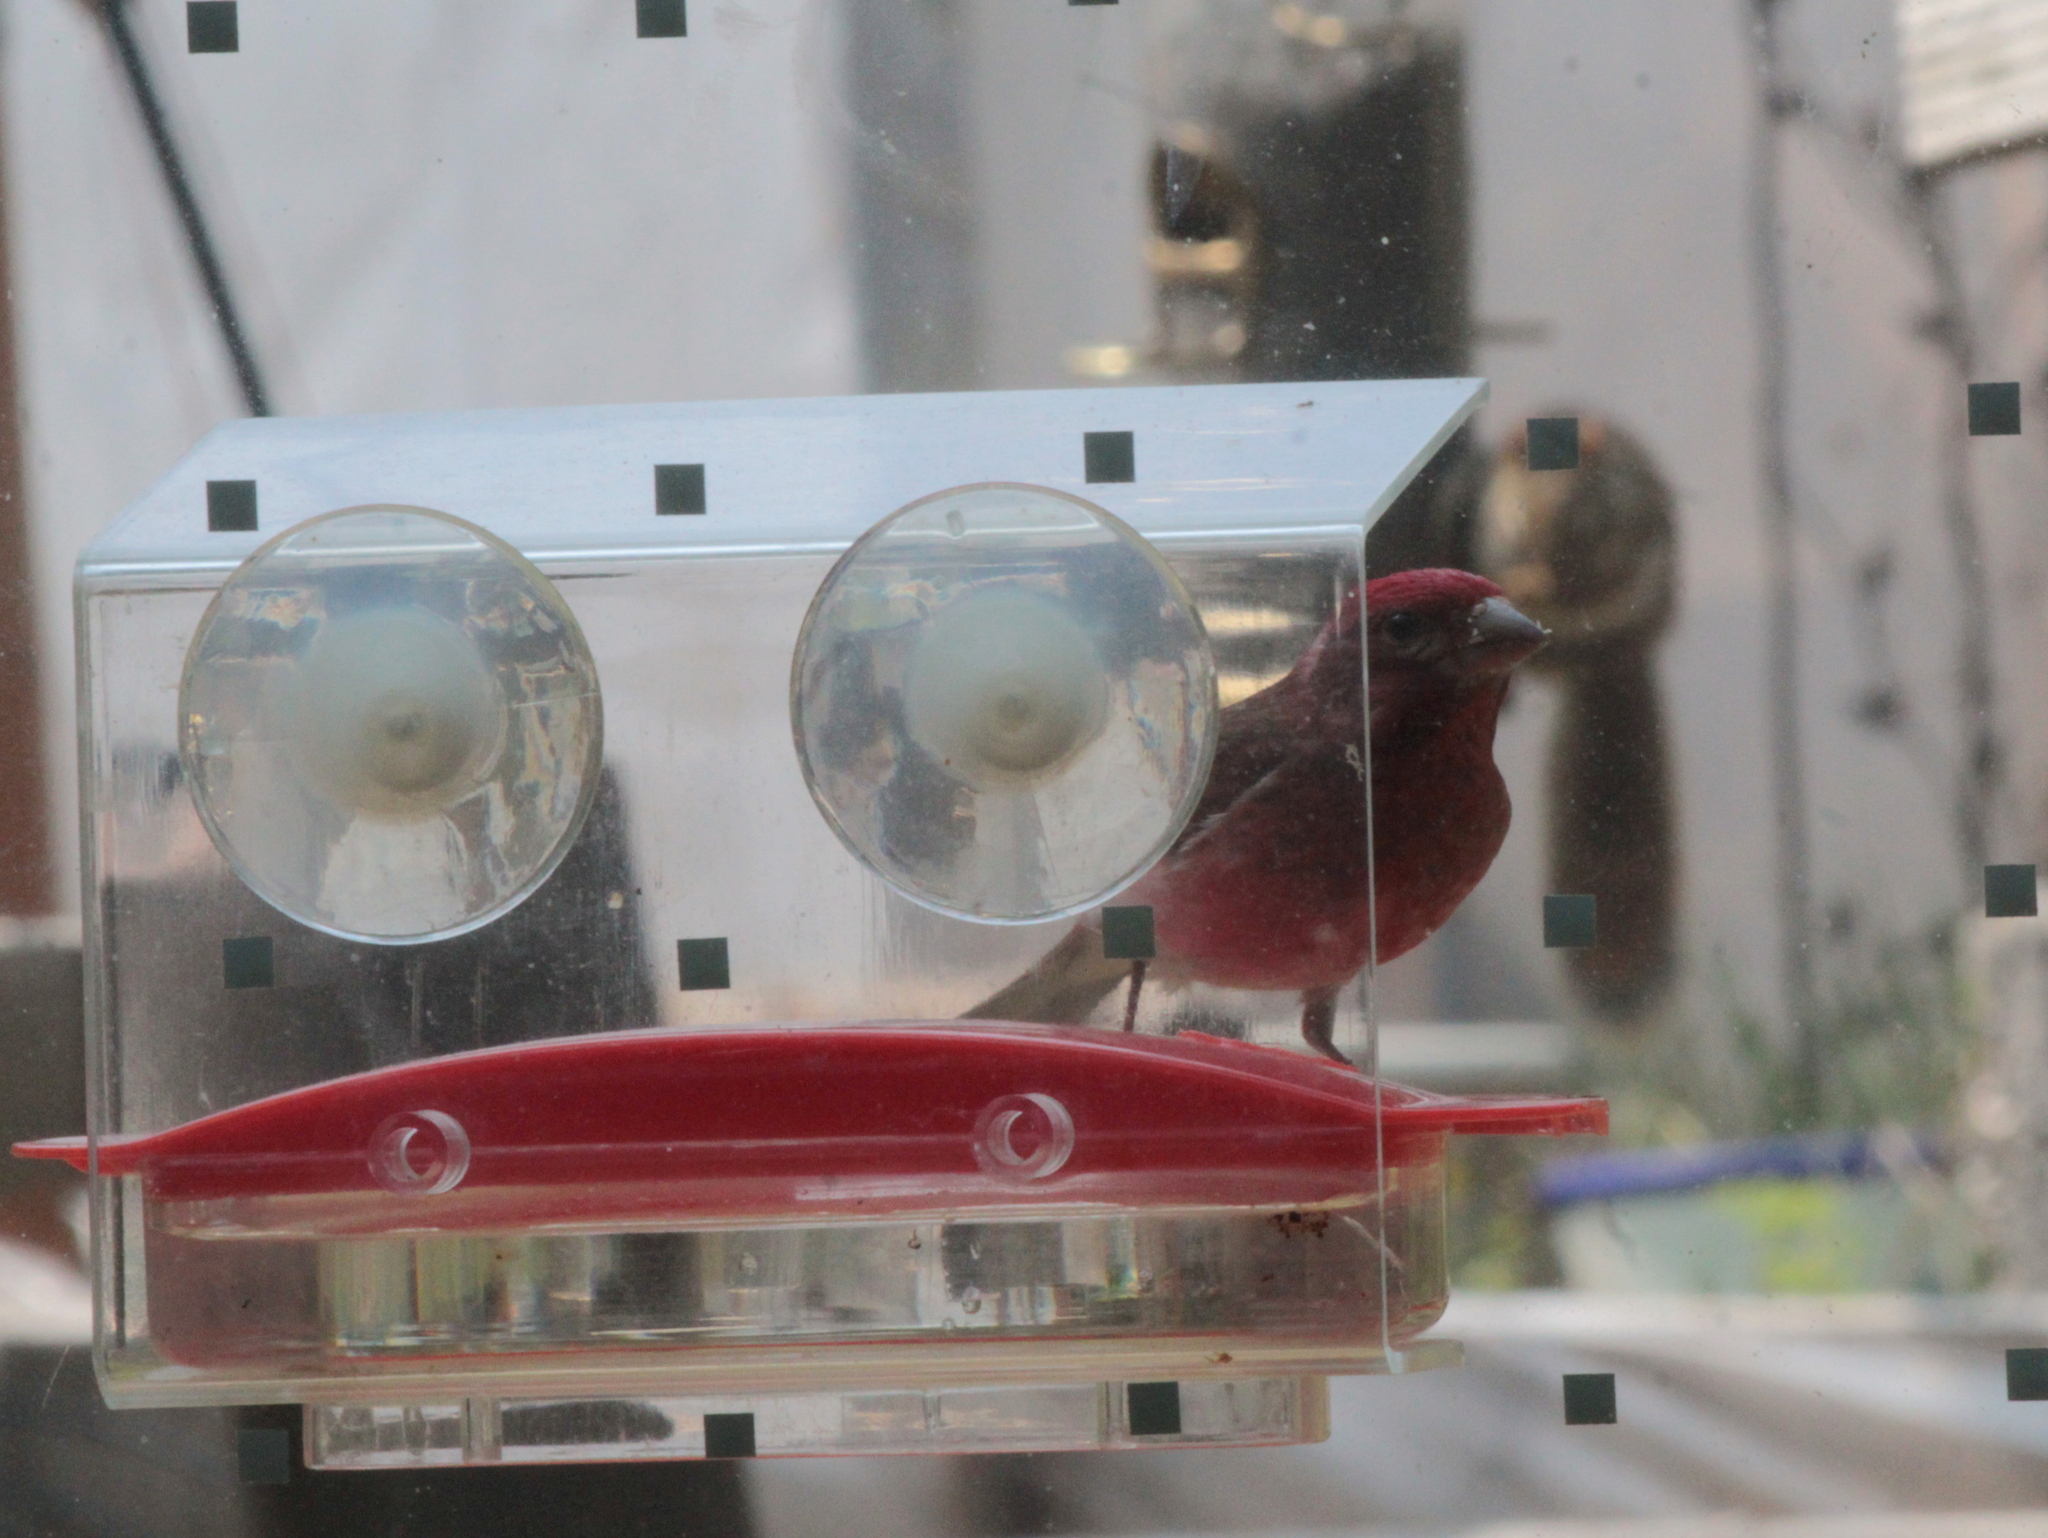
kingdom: Animalia
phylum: Chordata
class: Aves
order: Passeriformes
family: Fringillidae
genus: Haemorhous
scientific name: Haemorhous purpureus
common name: Purple finch
